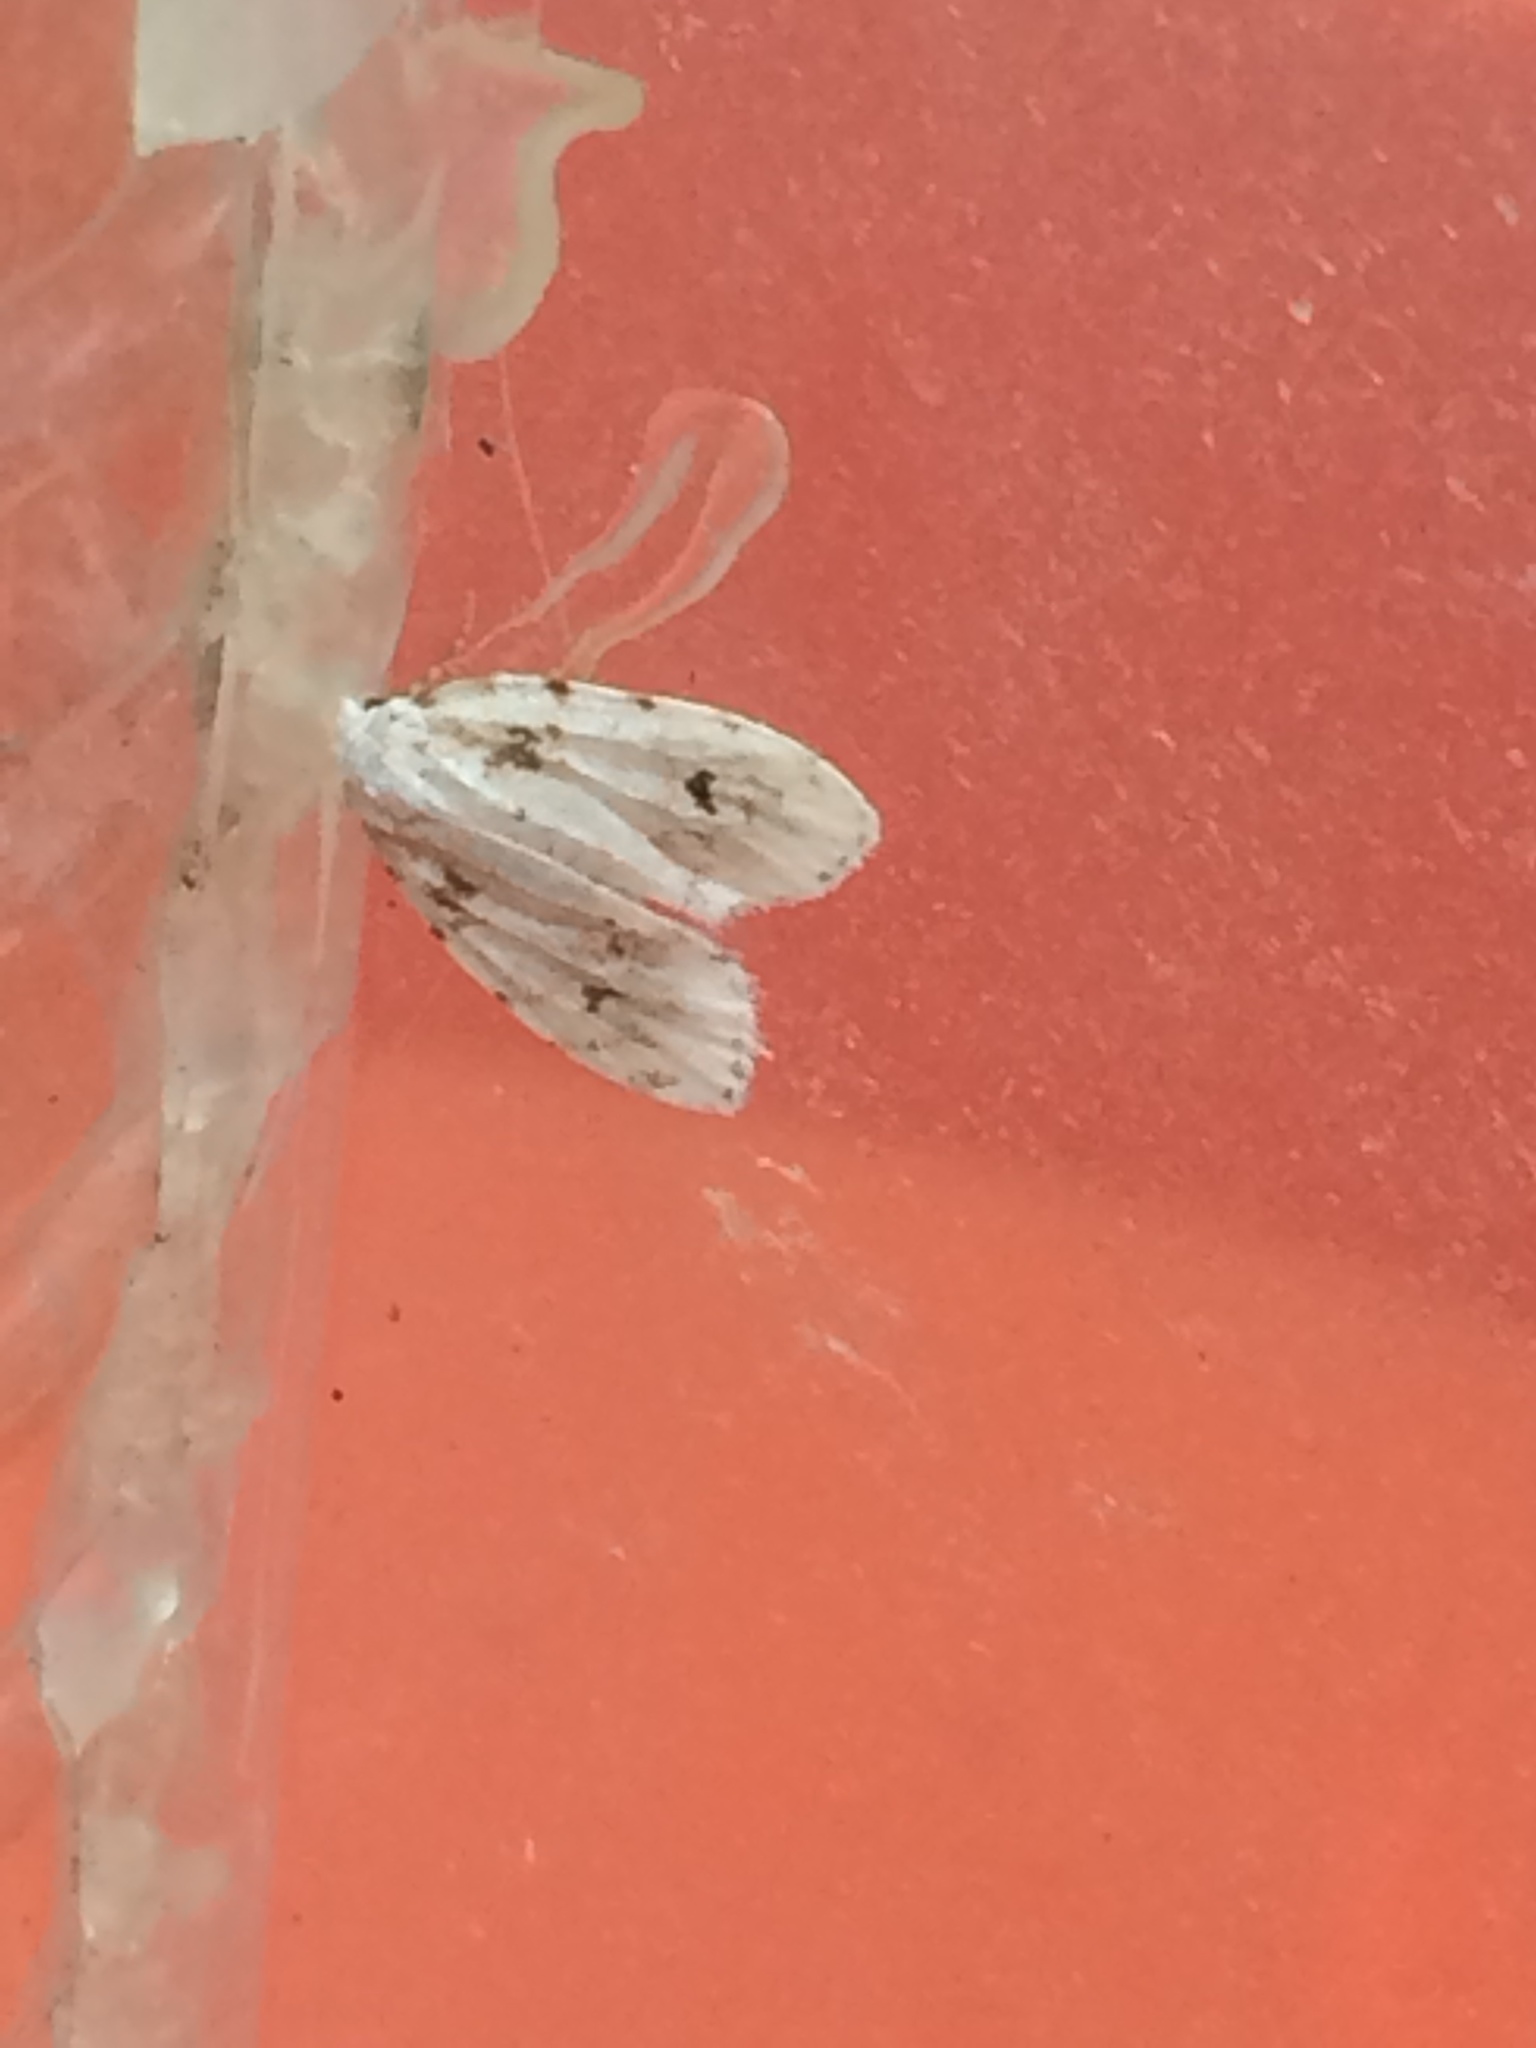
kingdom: Animalia
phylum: Arthropoda
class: Insecta
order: Lepidoptera
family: Erebidae
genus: Clemensia
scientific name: Clemensia ochreata
